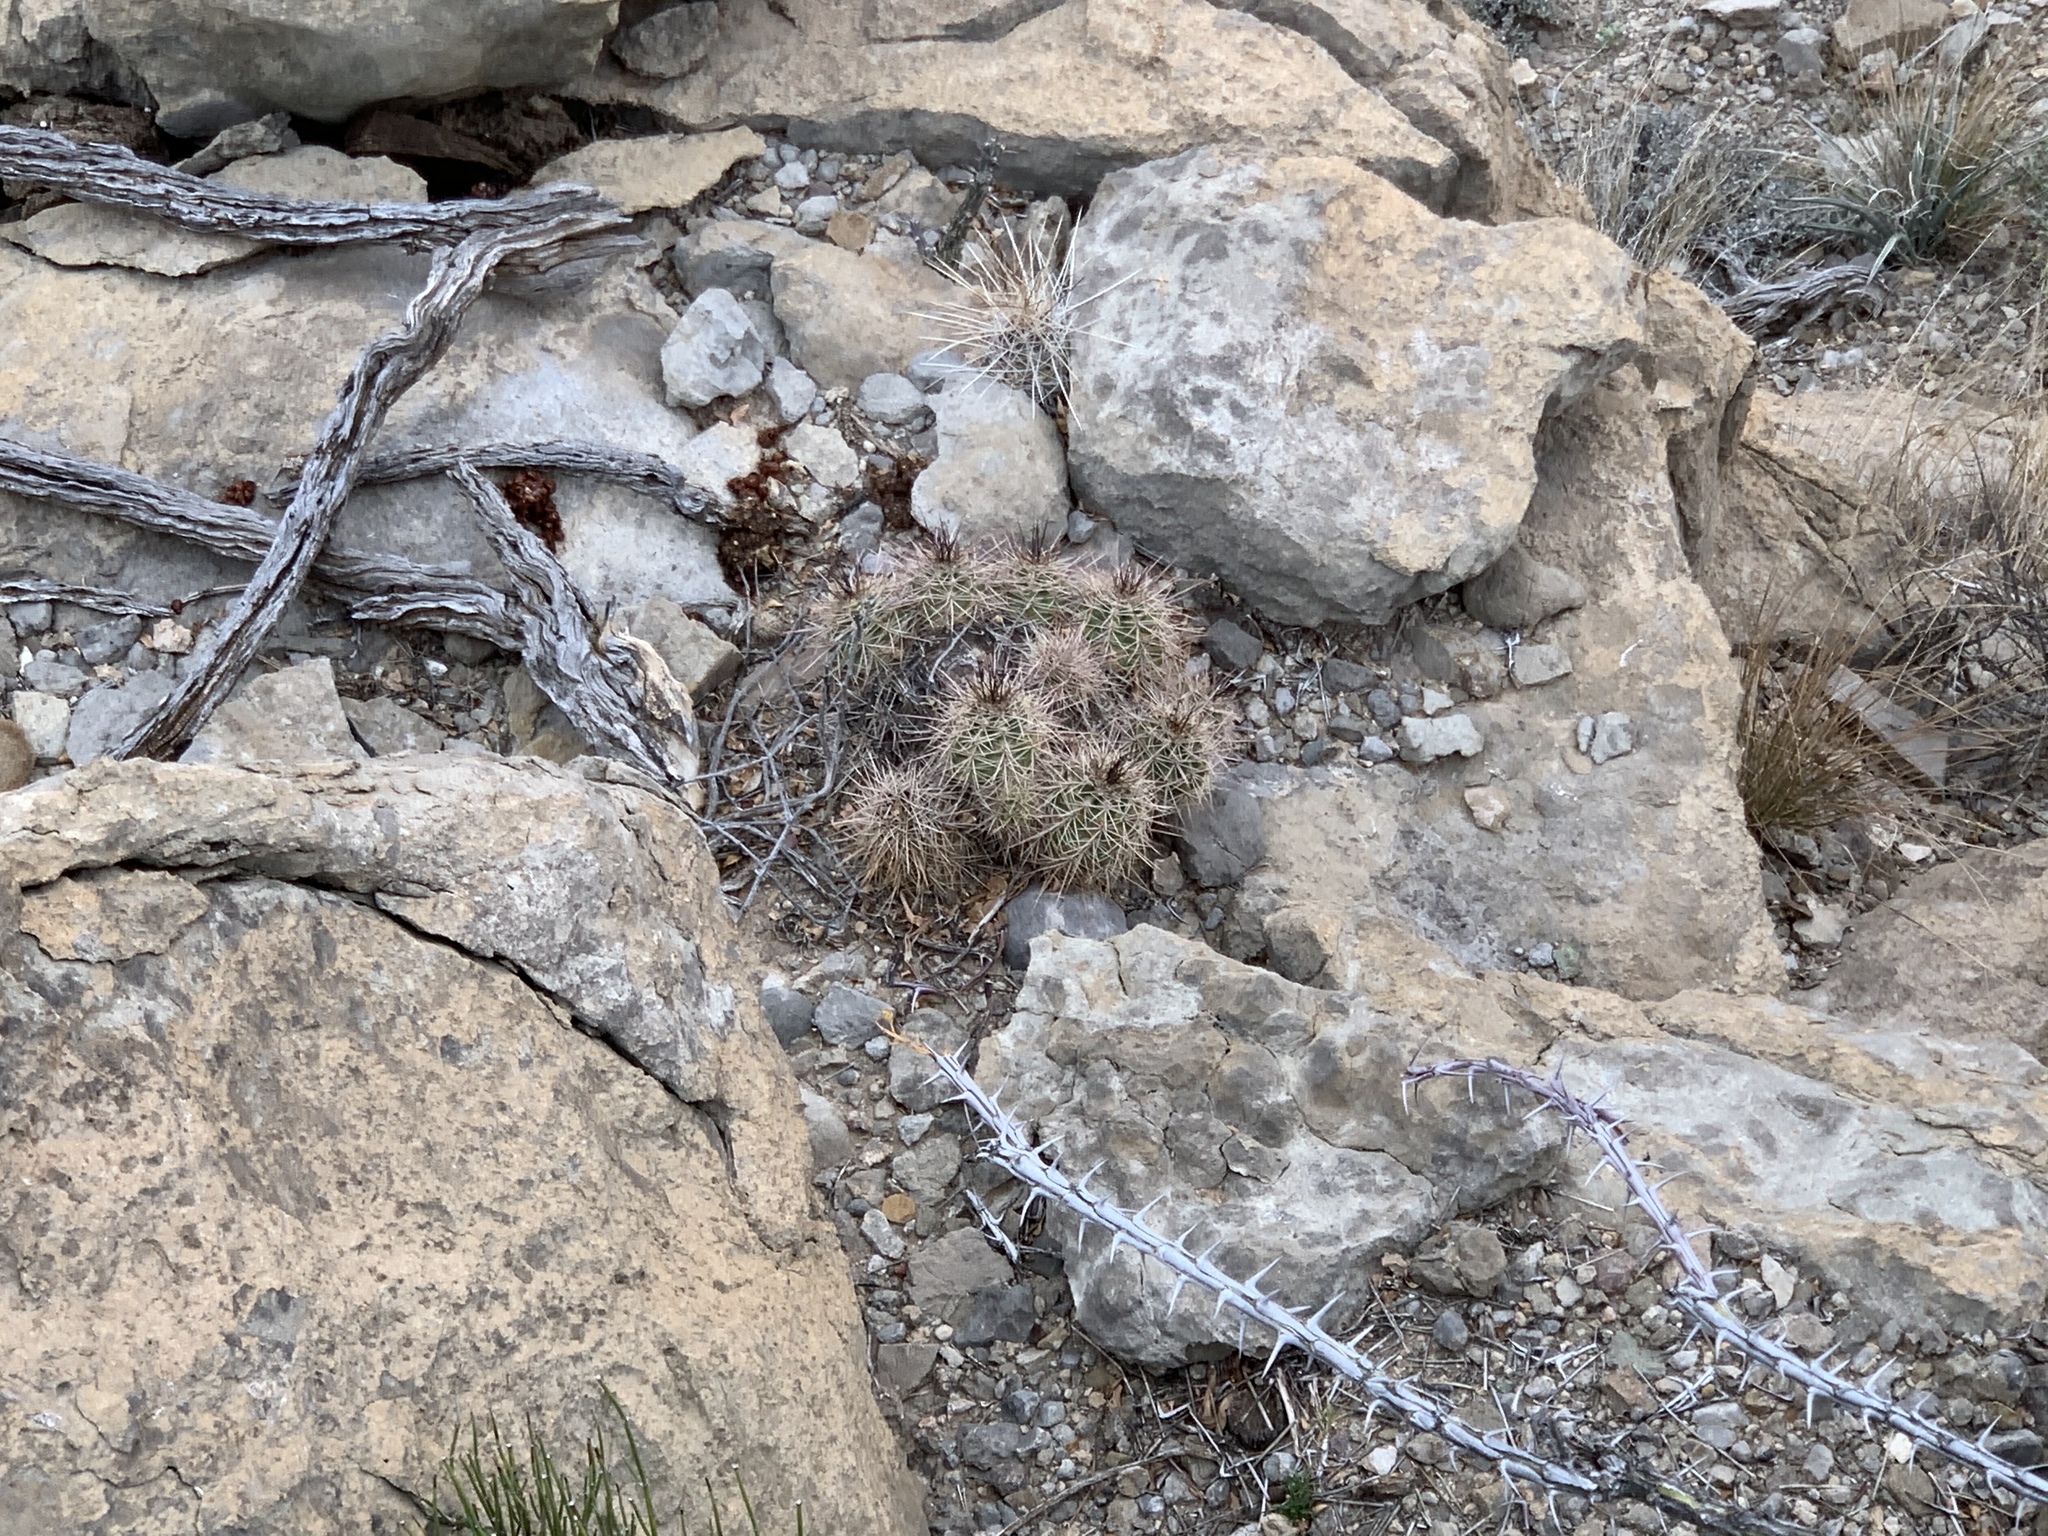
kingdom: Plantae
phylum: Tracheophyta
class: Magnoliopsida
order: Caryophyllales
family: Cactaceae
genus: Echinocereus
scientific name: Echinocereus coccineus
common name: Scarlet hedgehog cactus
